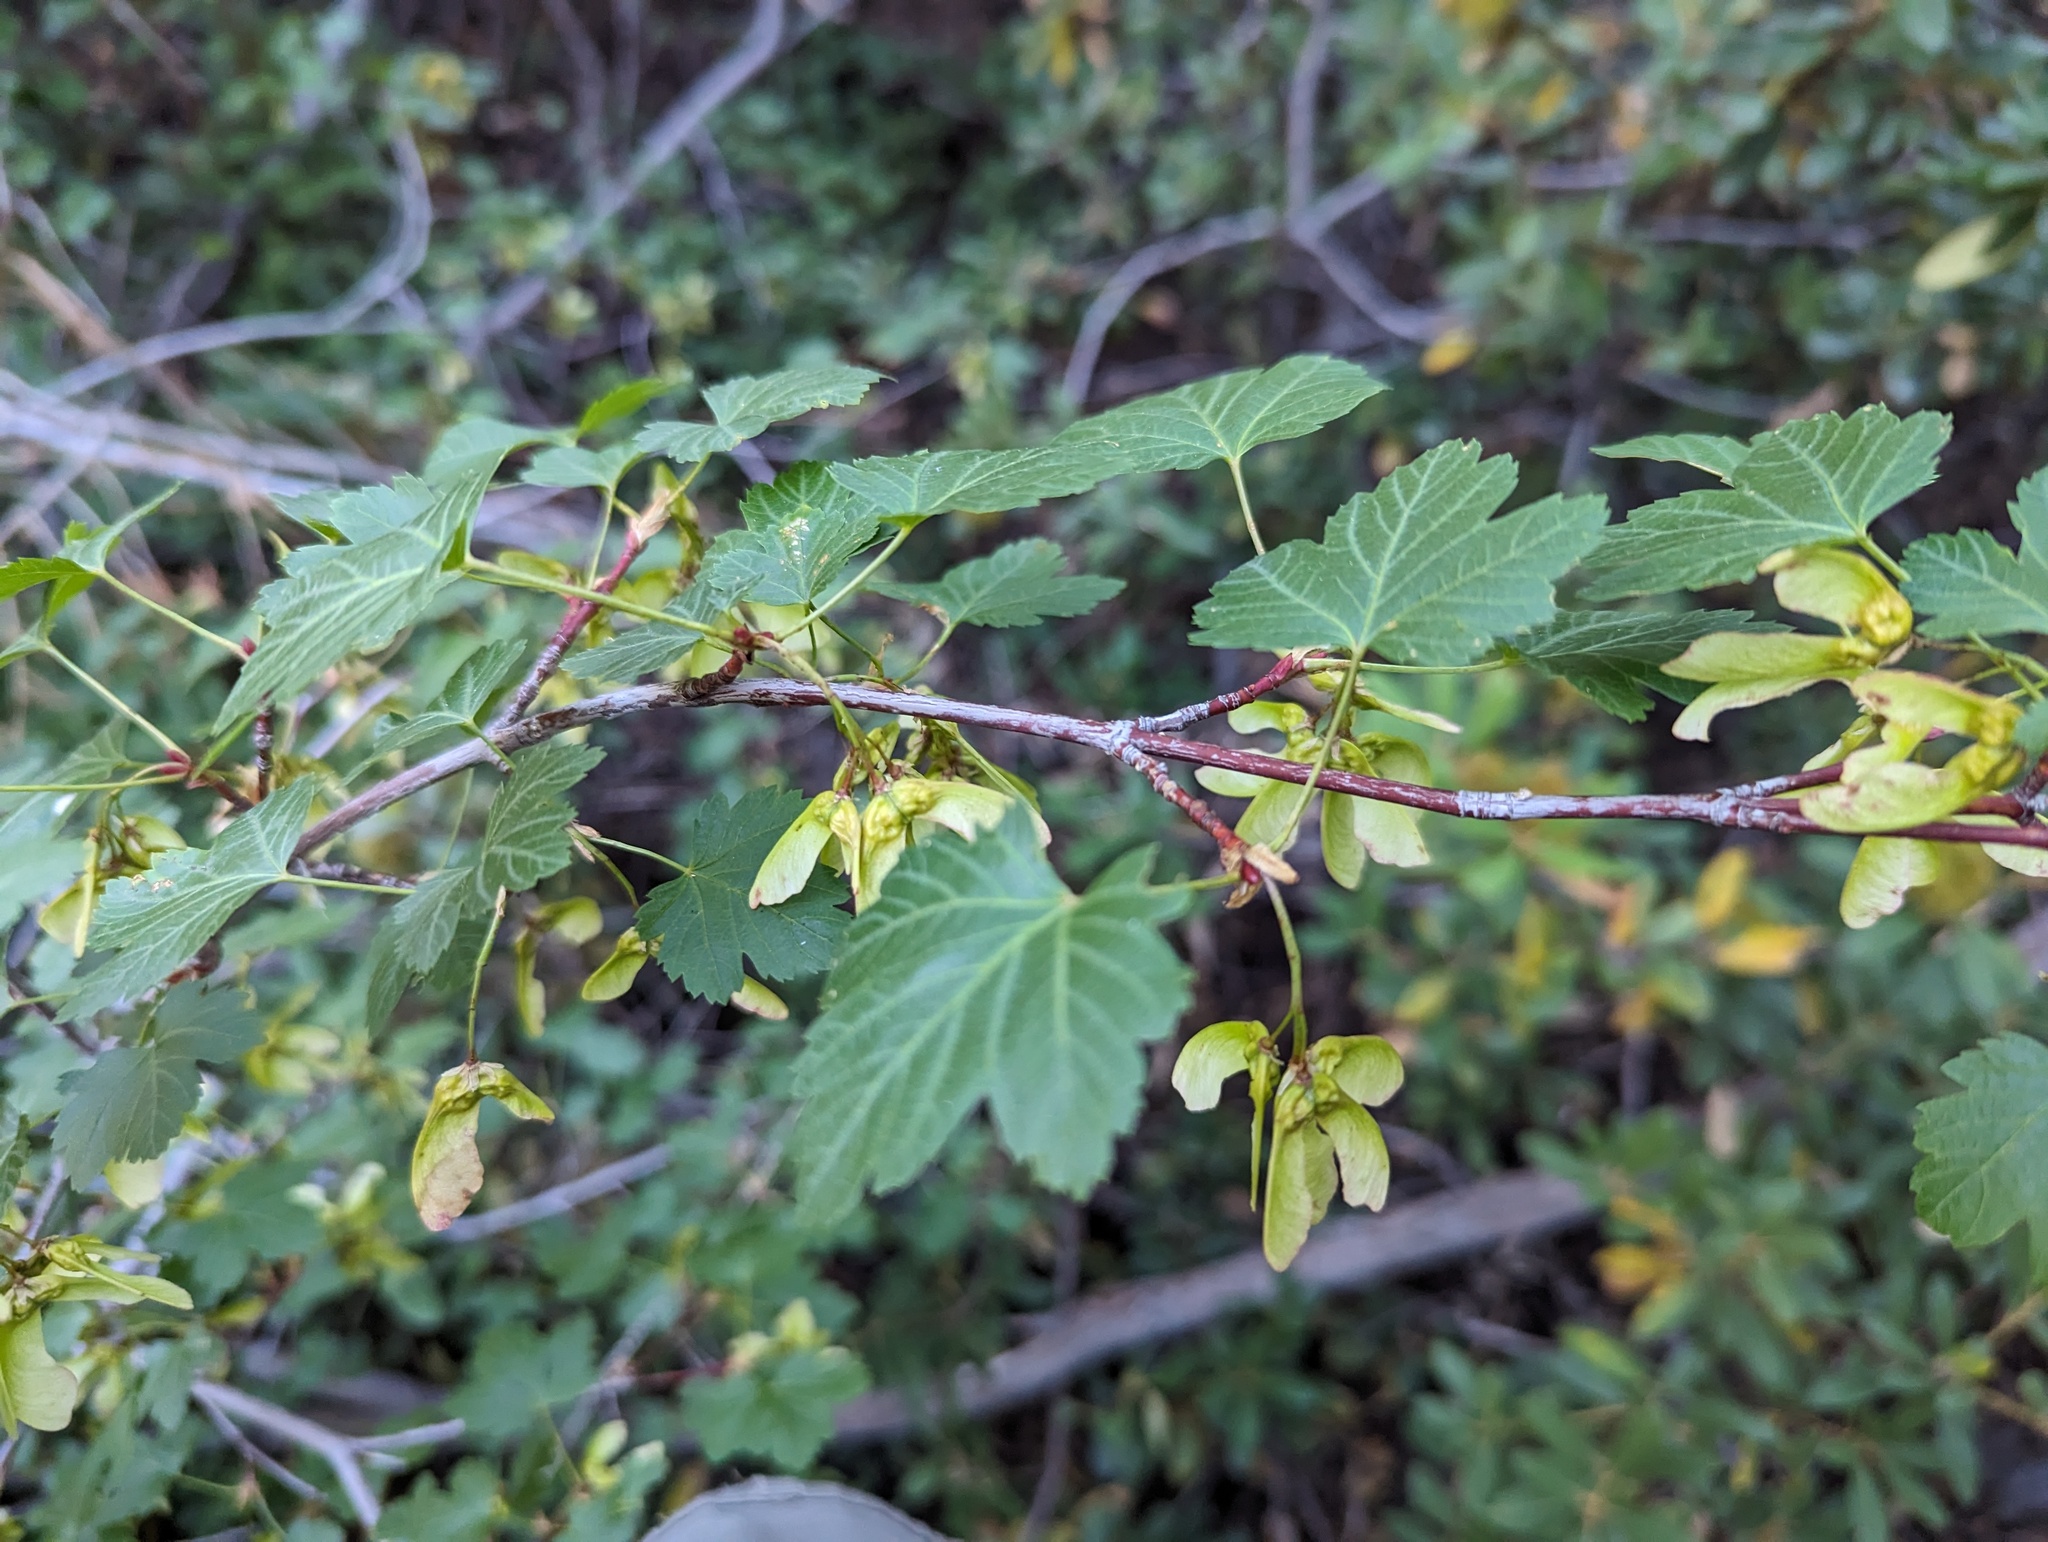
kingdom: Plantae
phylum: Tracheophyta
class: Magnoliopsida
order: Sapindales
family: Sapindaceae
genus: Acer
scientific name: Acer glabrum
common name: Rocky mountain maple
